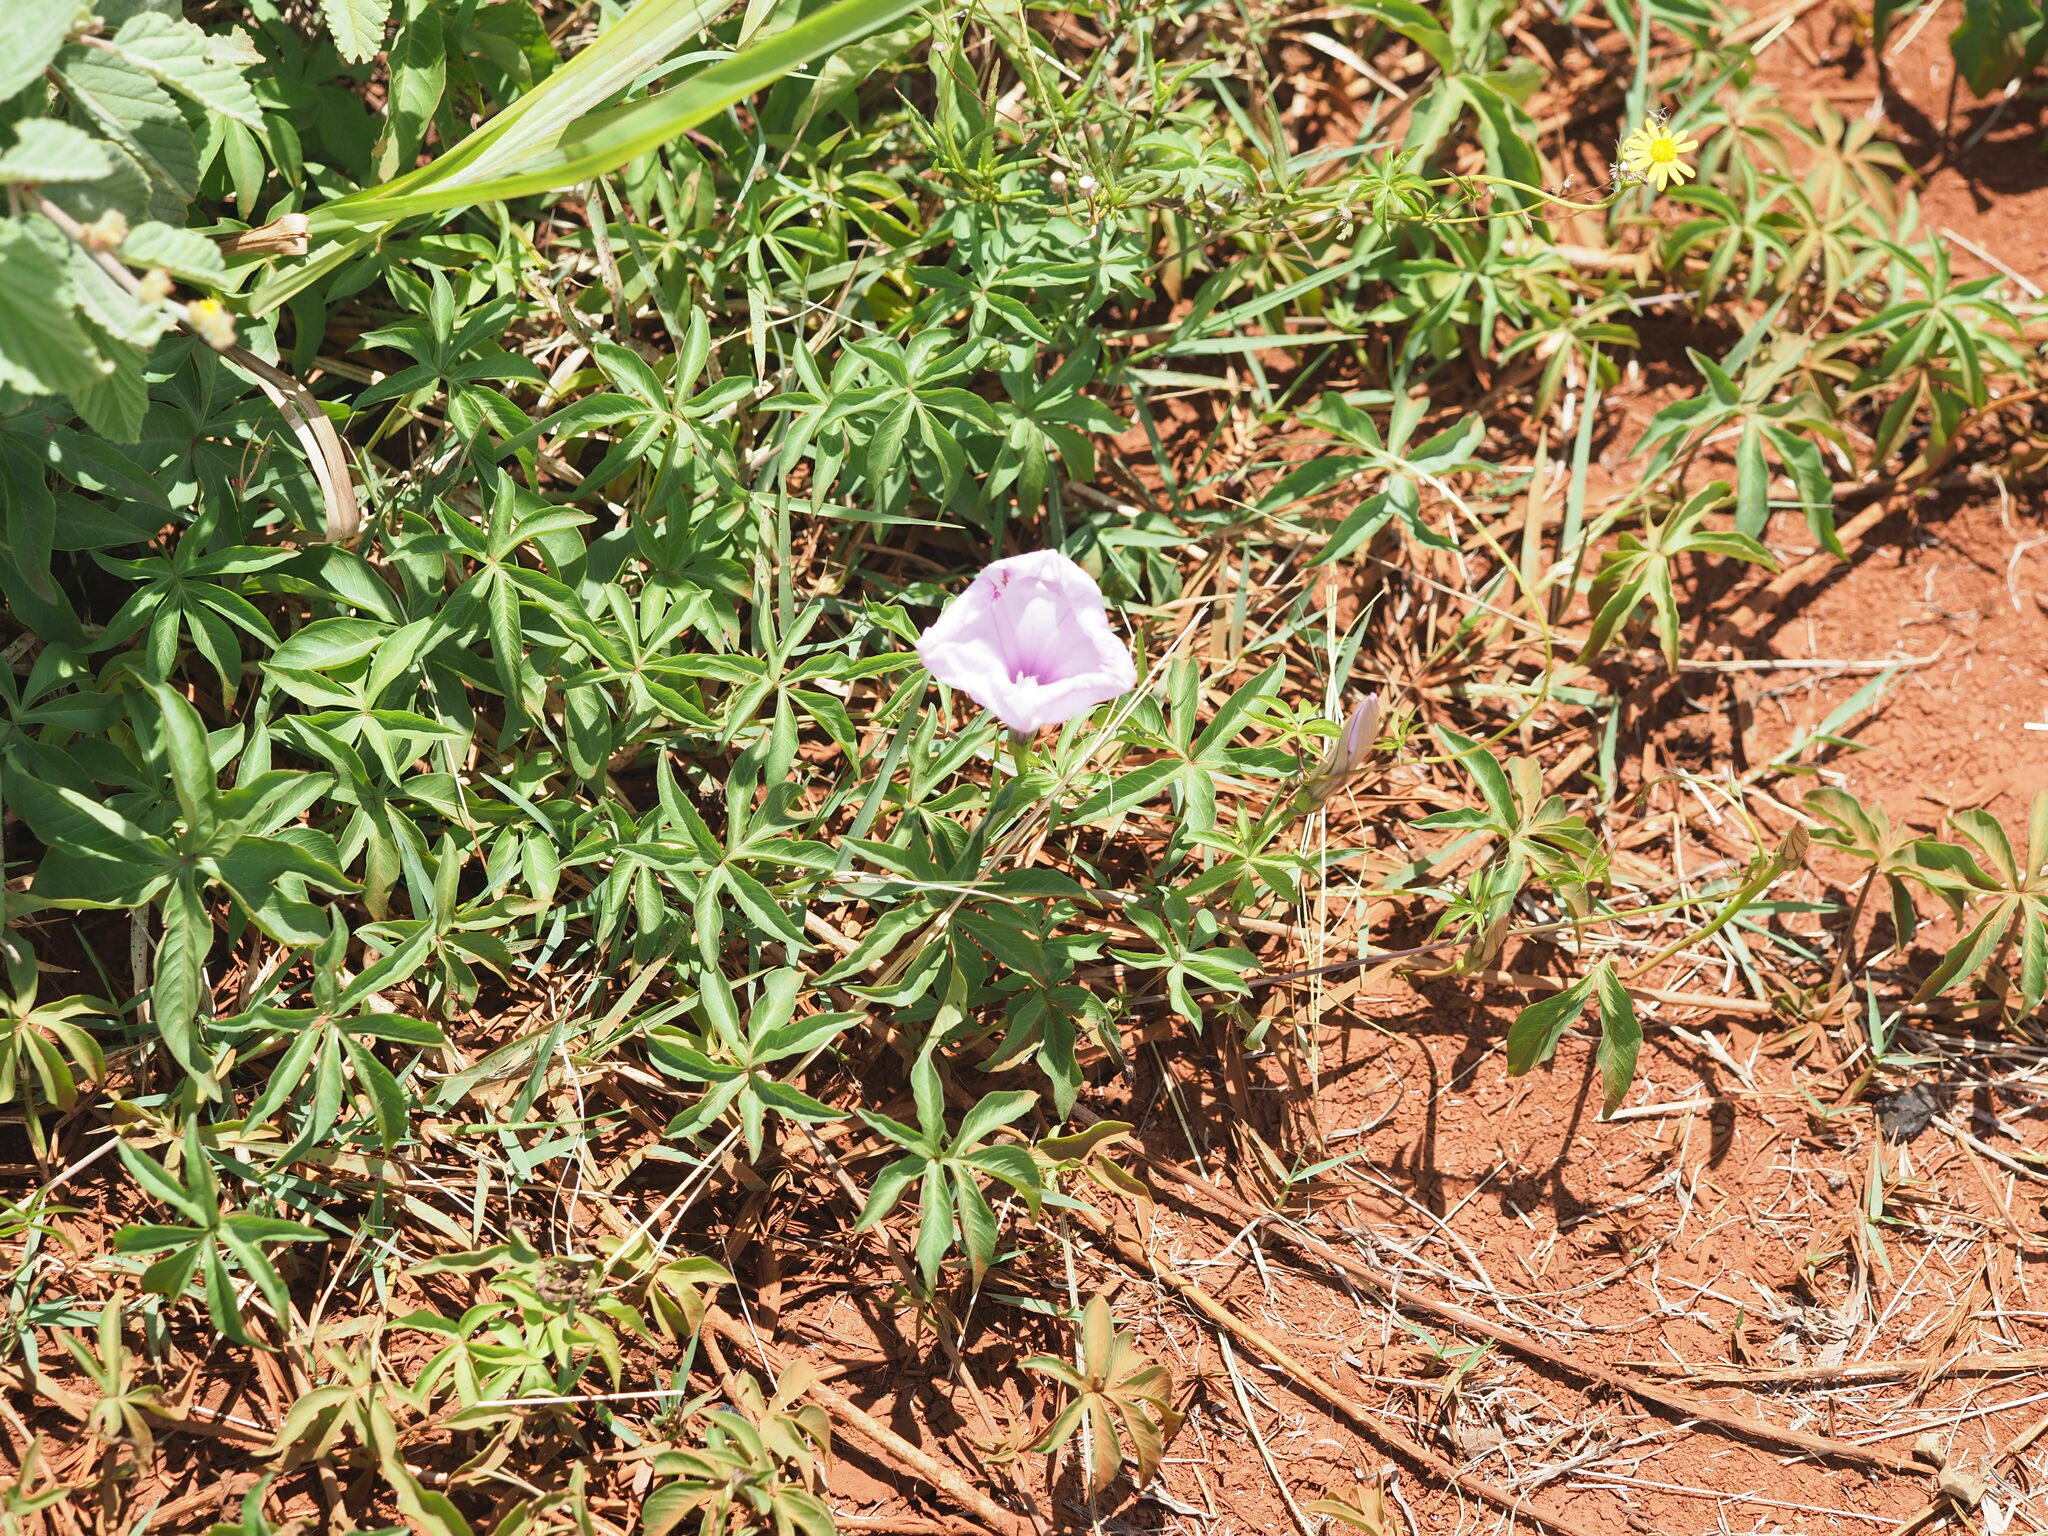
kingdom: Plantae
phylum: Tracheophyta
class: Magnoliopsida
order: Solanales
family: Convolvulaceae
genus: Ipomoea
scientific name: Ipomoea cairica
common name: Mile a minute vine
